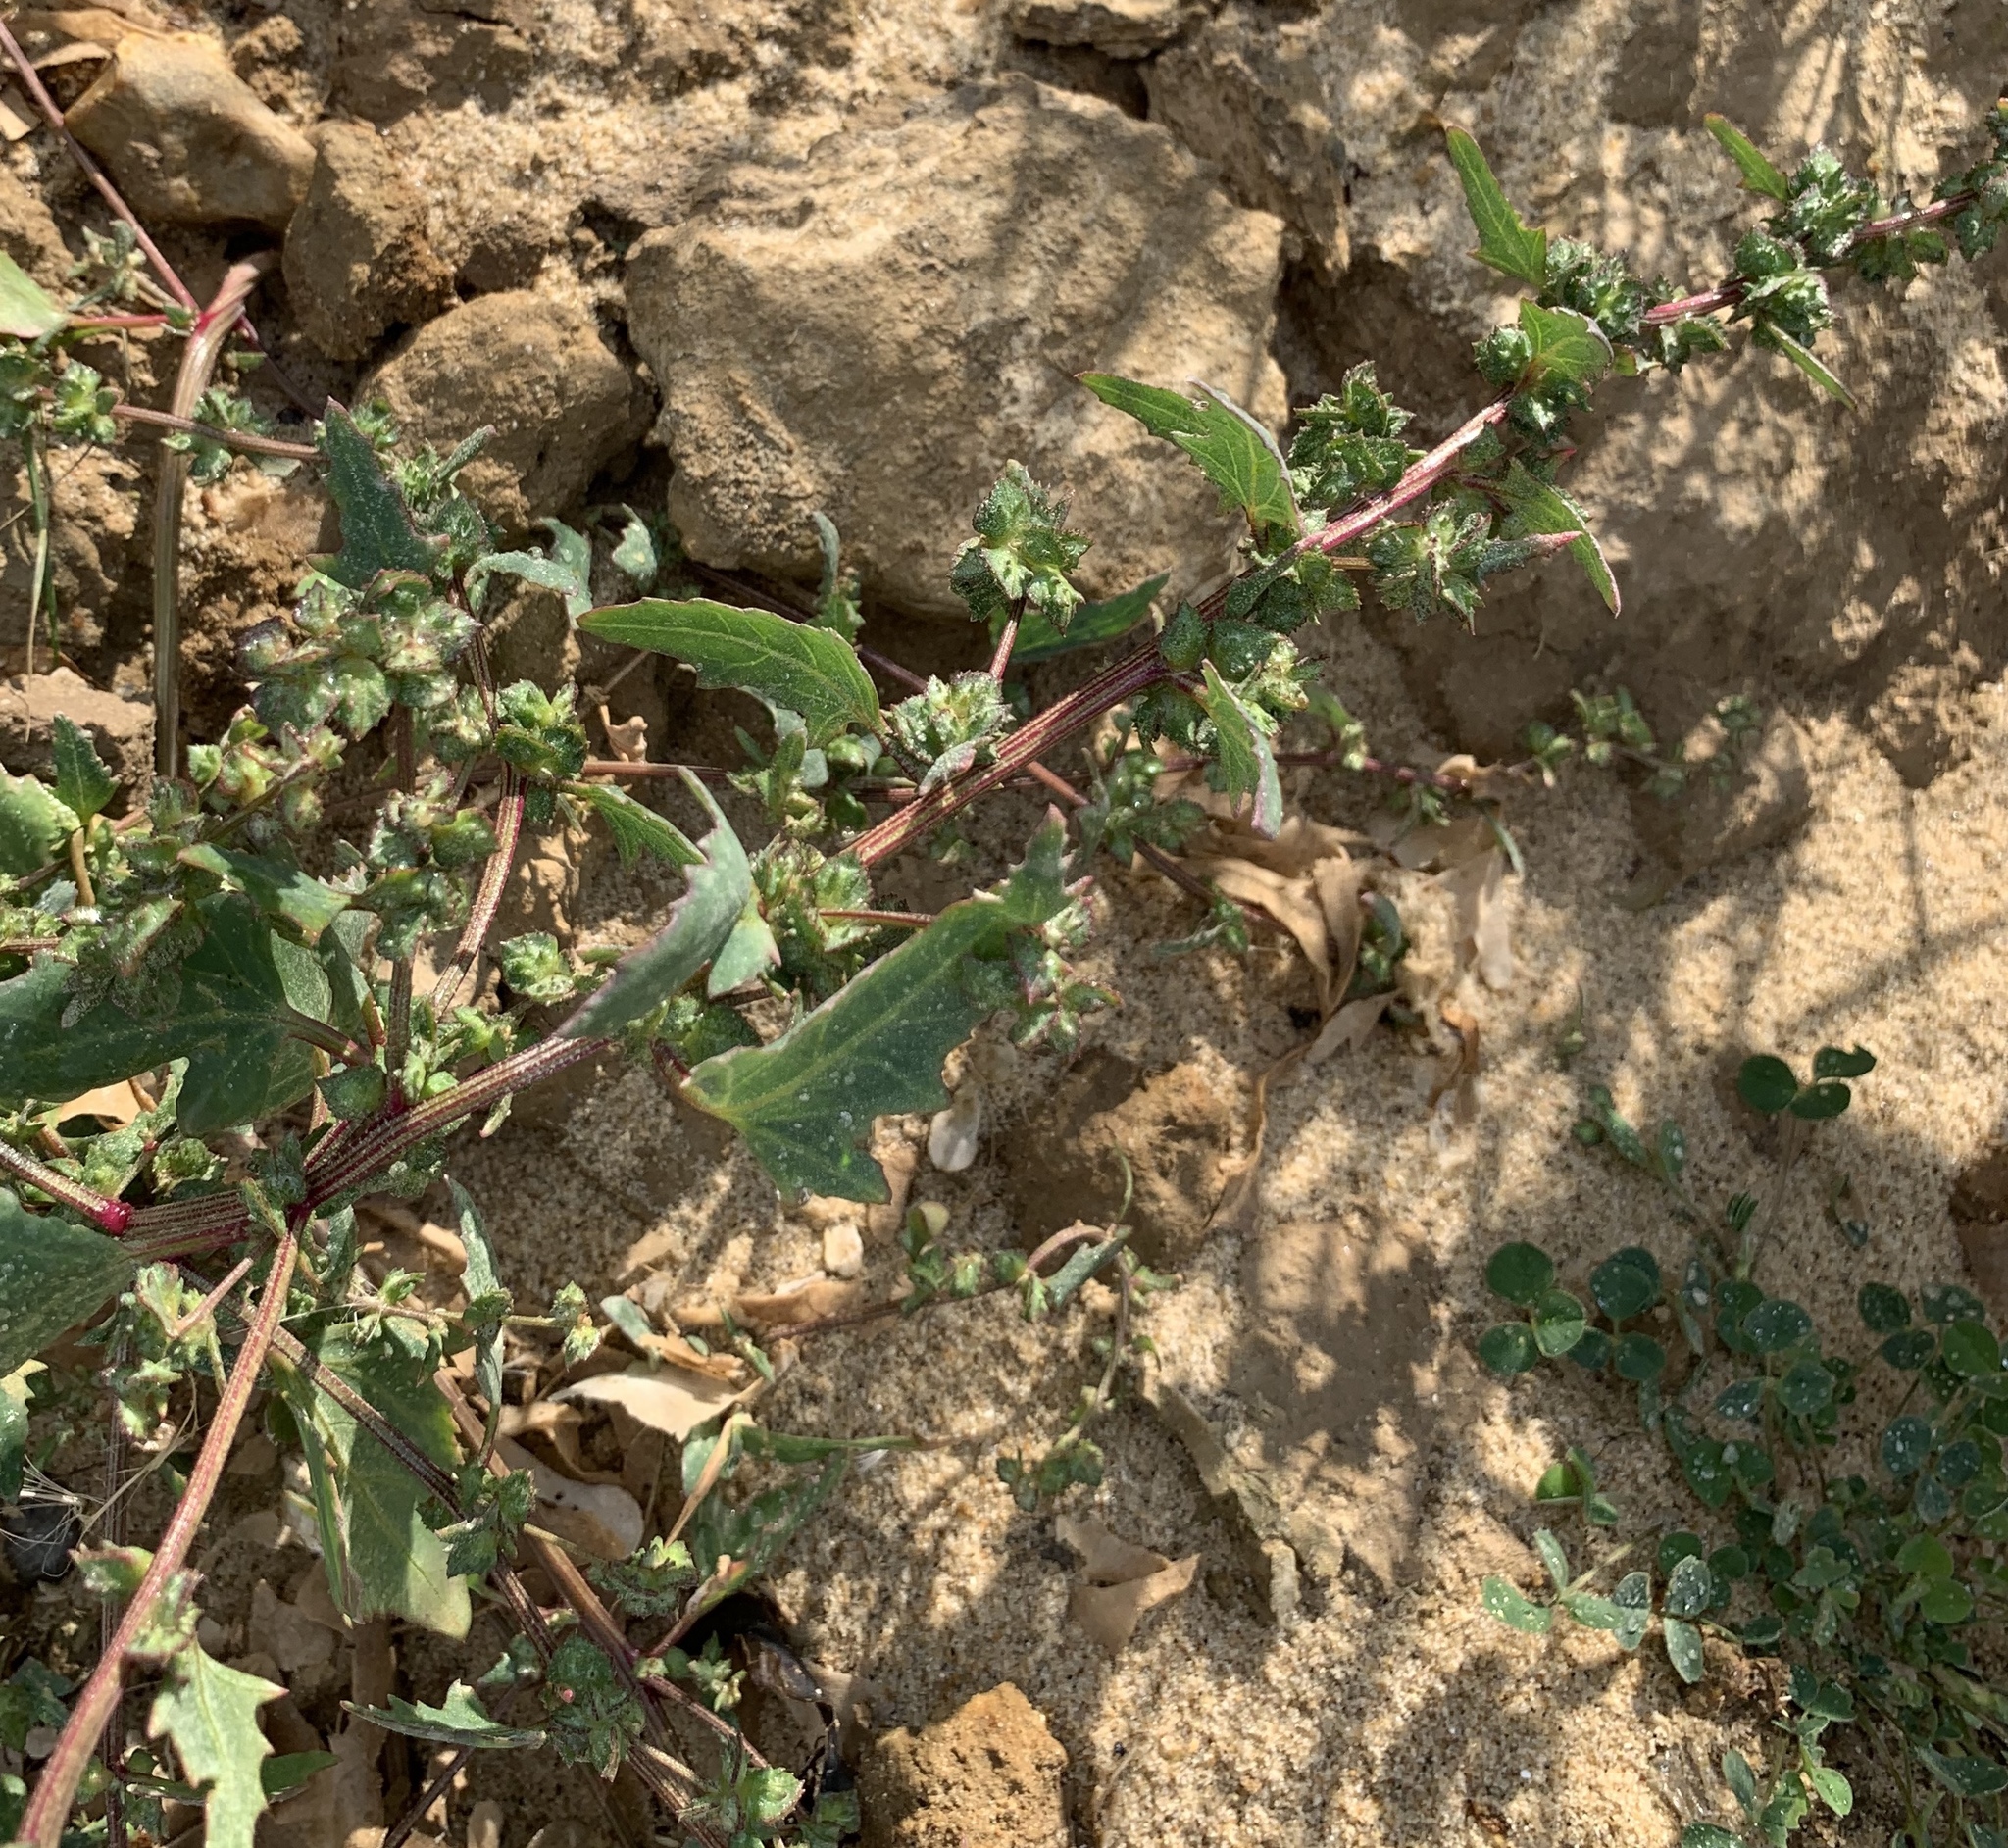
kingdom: Plantae
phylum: Tracheophyta
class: Magnoliopsida
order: Caryophyllales
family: Amaranthaceae
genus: Atriplex
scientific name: Atriplex glabriuscula
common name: Babington's orache
